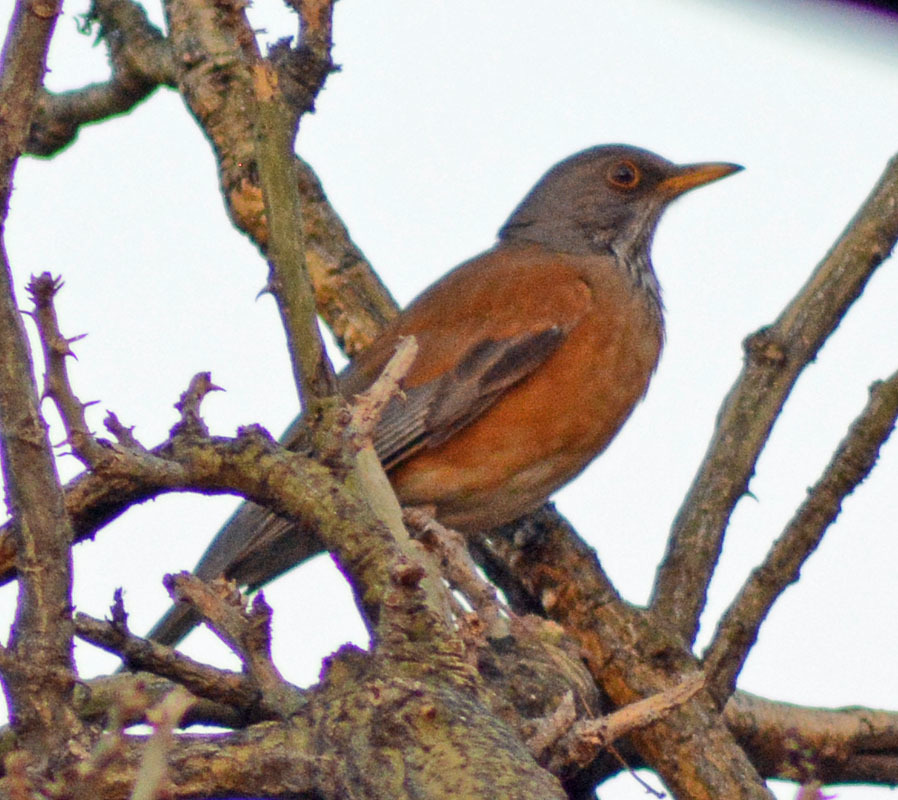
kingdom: Animalia
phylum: Chordata
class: Aves
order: Passeriformes
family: Turdidae
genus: Turdus
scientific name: Turdus rufopalliatus
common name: Rufous-backed robin
